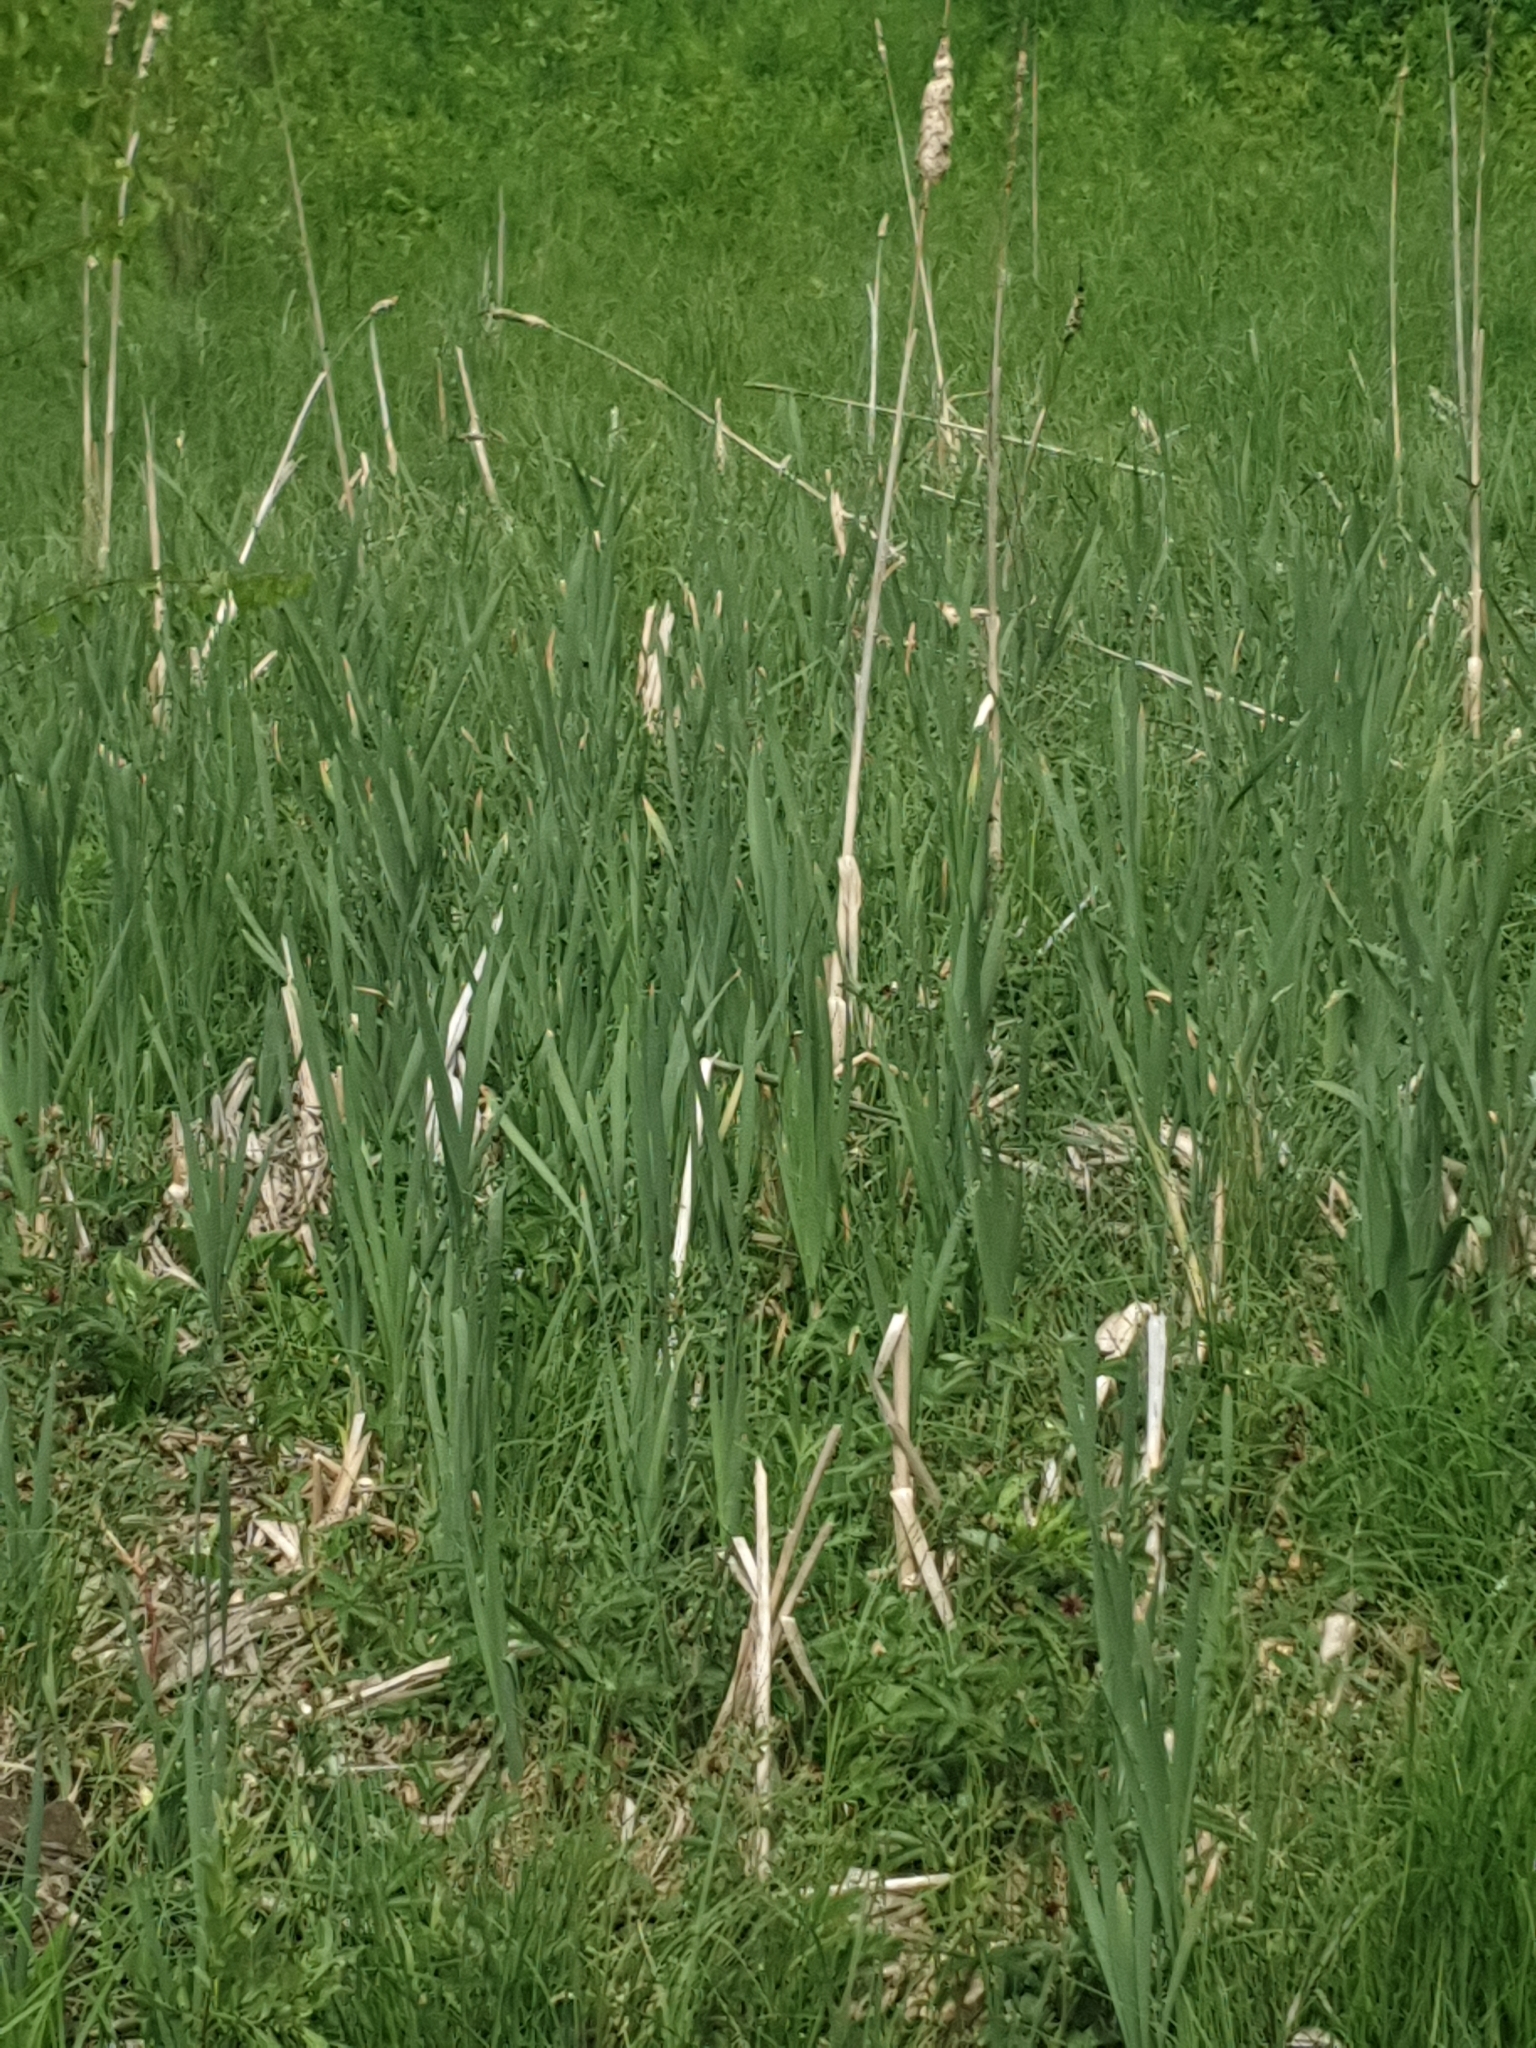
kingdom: Plantae
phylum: Tracheophyta
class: Liliopsida
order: Poales
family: Typhaceae
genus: Typha
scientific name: Typha latifolia
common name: Broadleaf cattail
